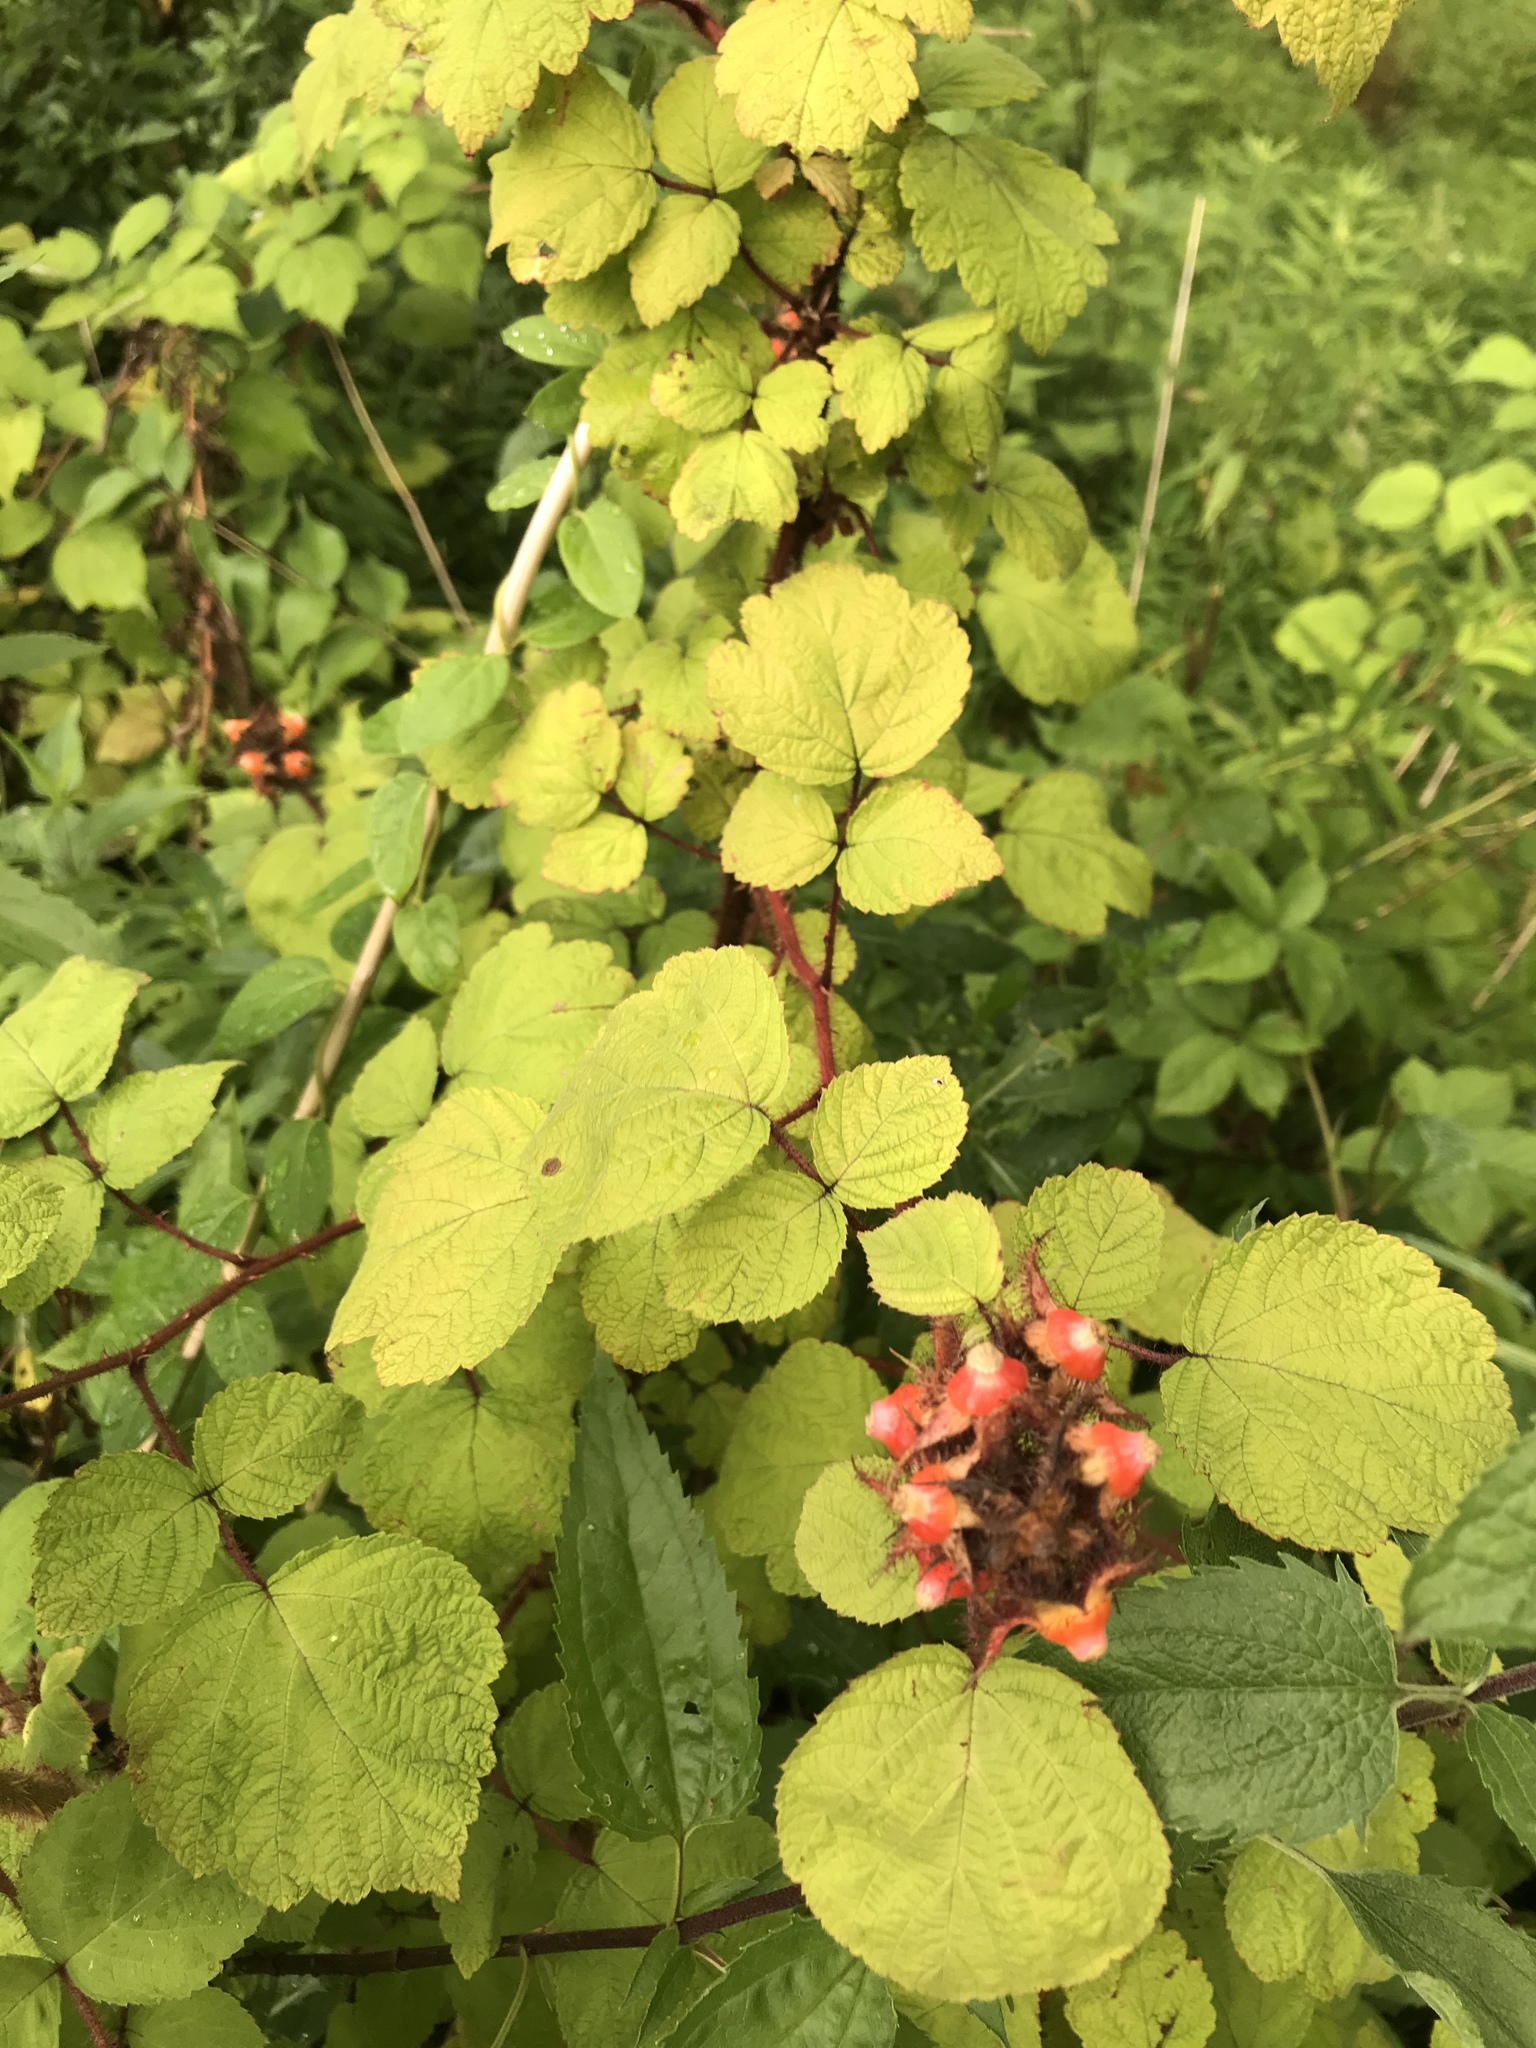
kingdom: Plantae
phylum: Tracheophyta
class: Magnoliopsida
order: Rosales
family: Rosaceae
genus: Rubus
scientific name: Rubus phoenicolasius
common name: Japanese wineberry
